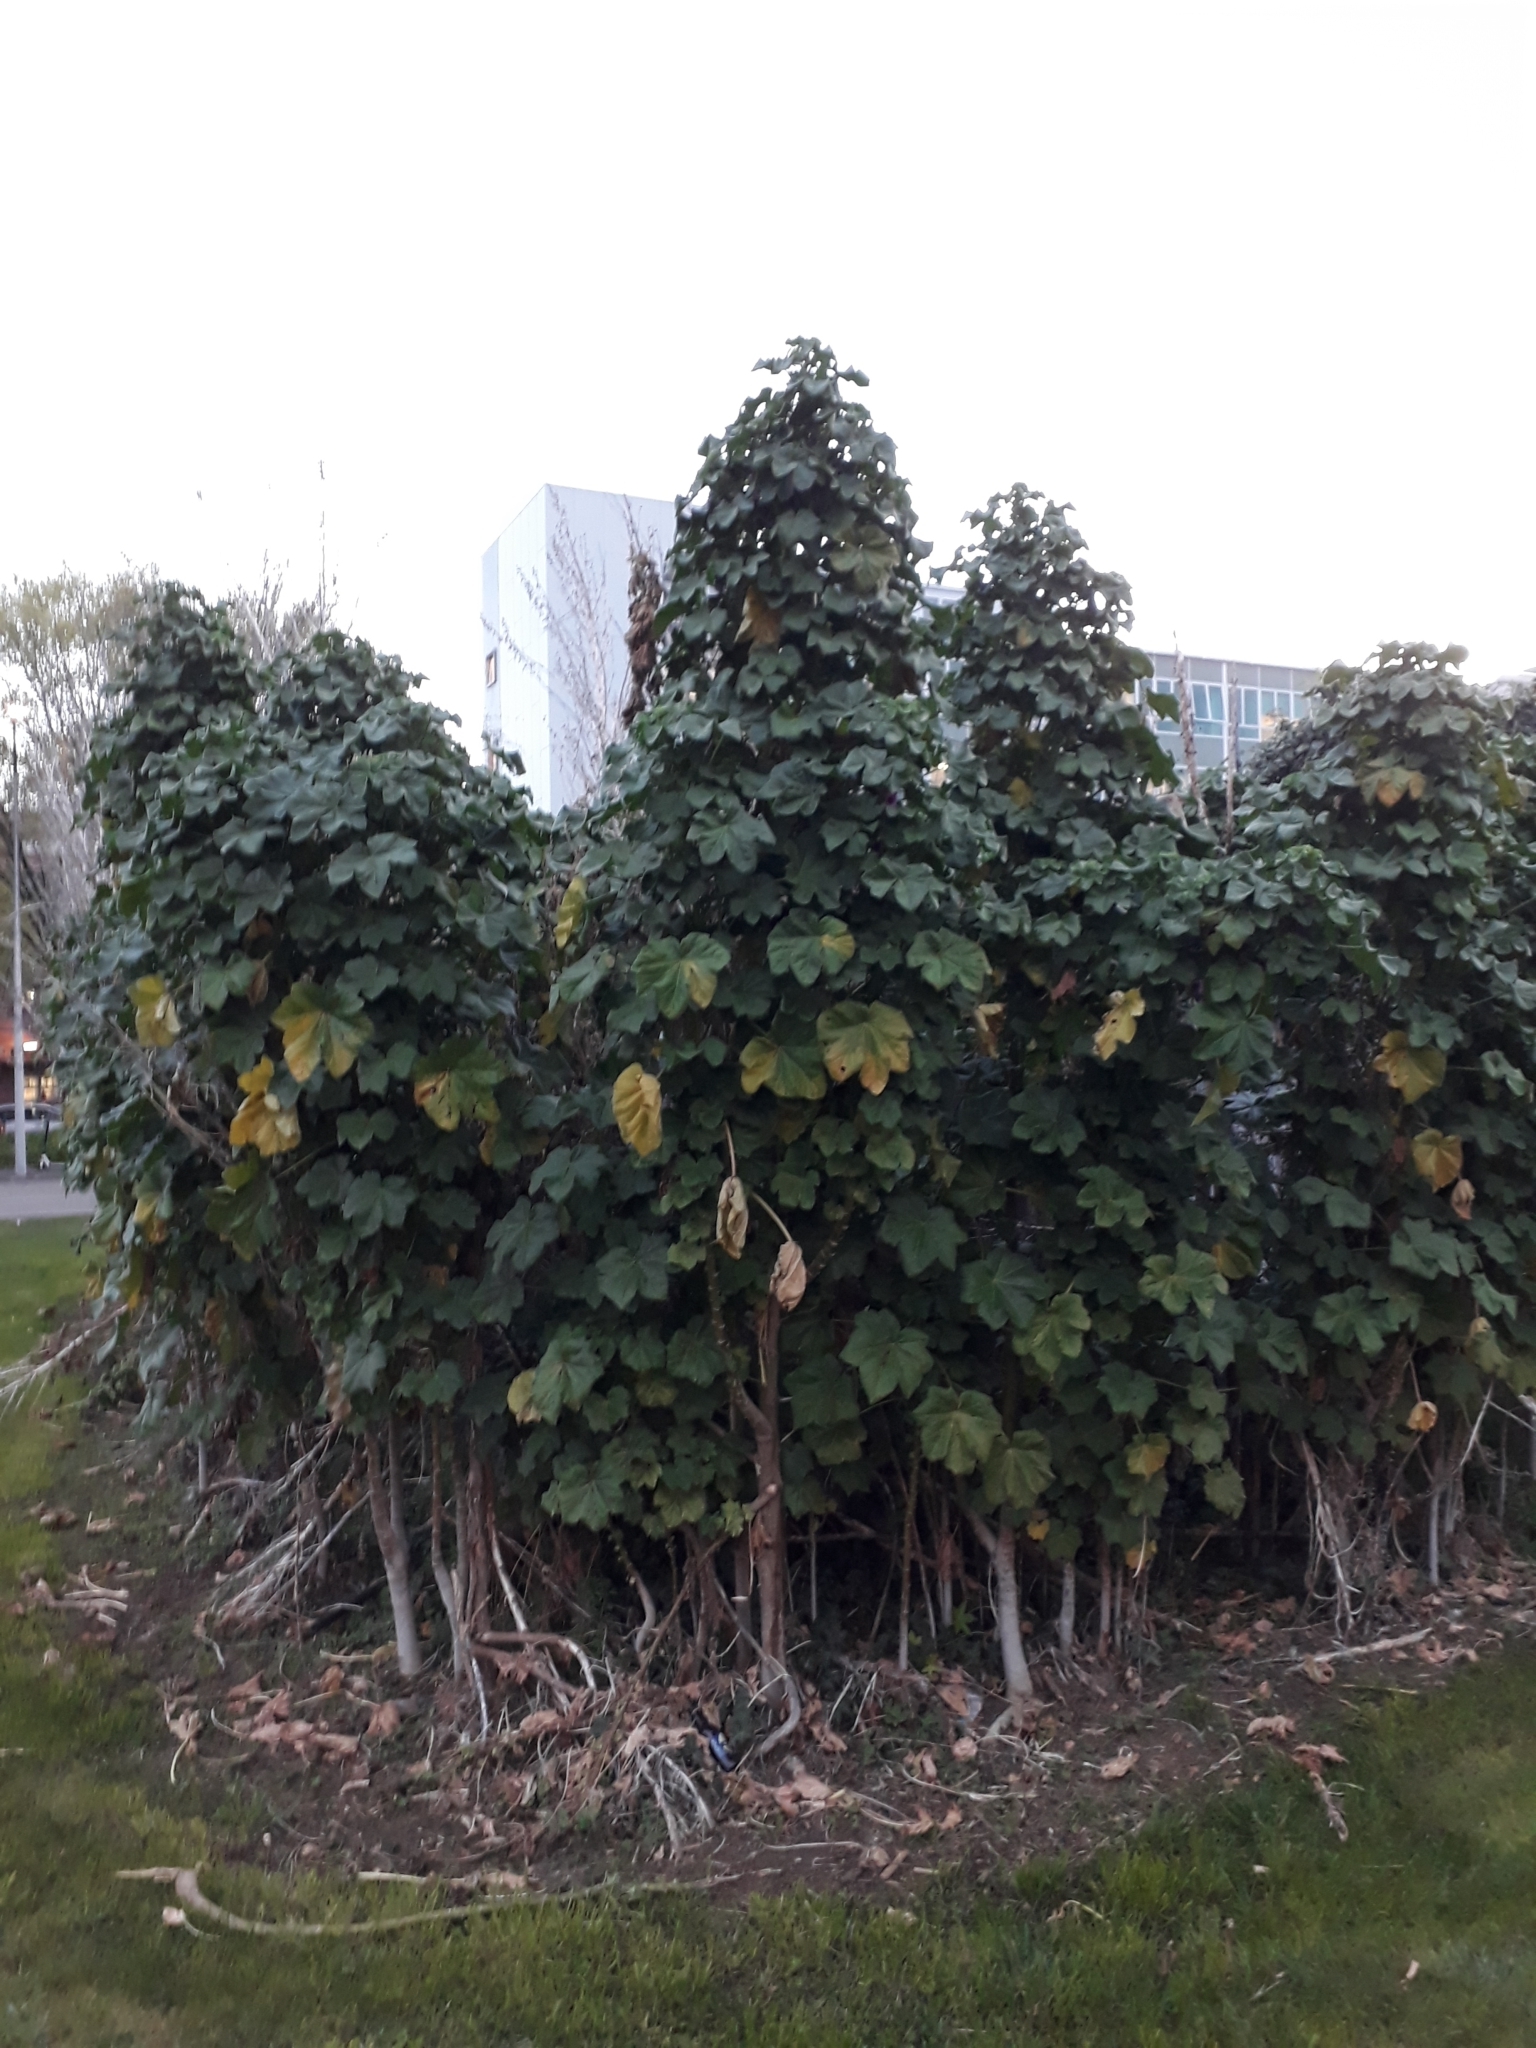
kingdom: Plantae
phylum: Tracheophyta
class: Magnoliopsida
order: Malvales
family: Malvaceae
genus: Malva
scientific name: Malva arborea
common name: Tree mallow
